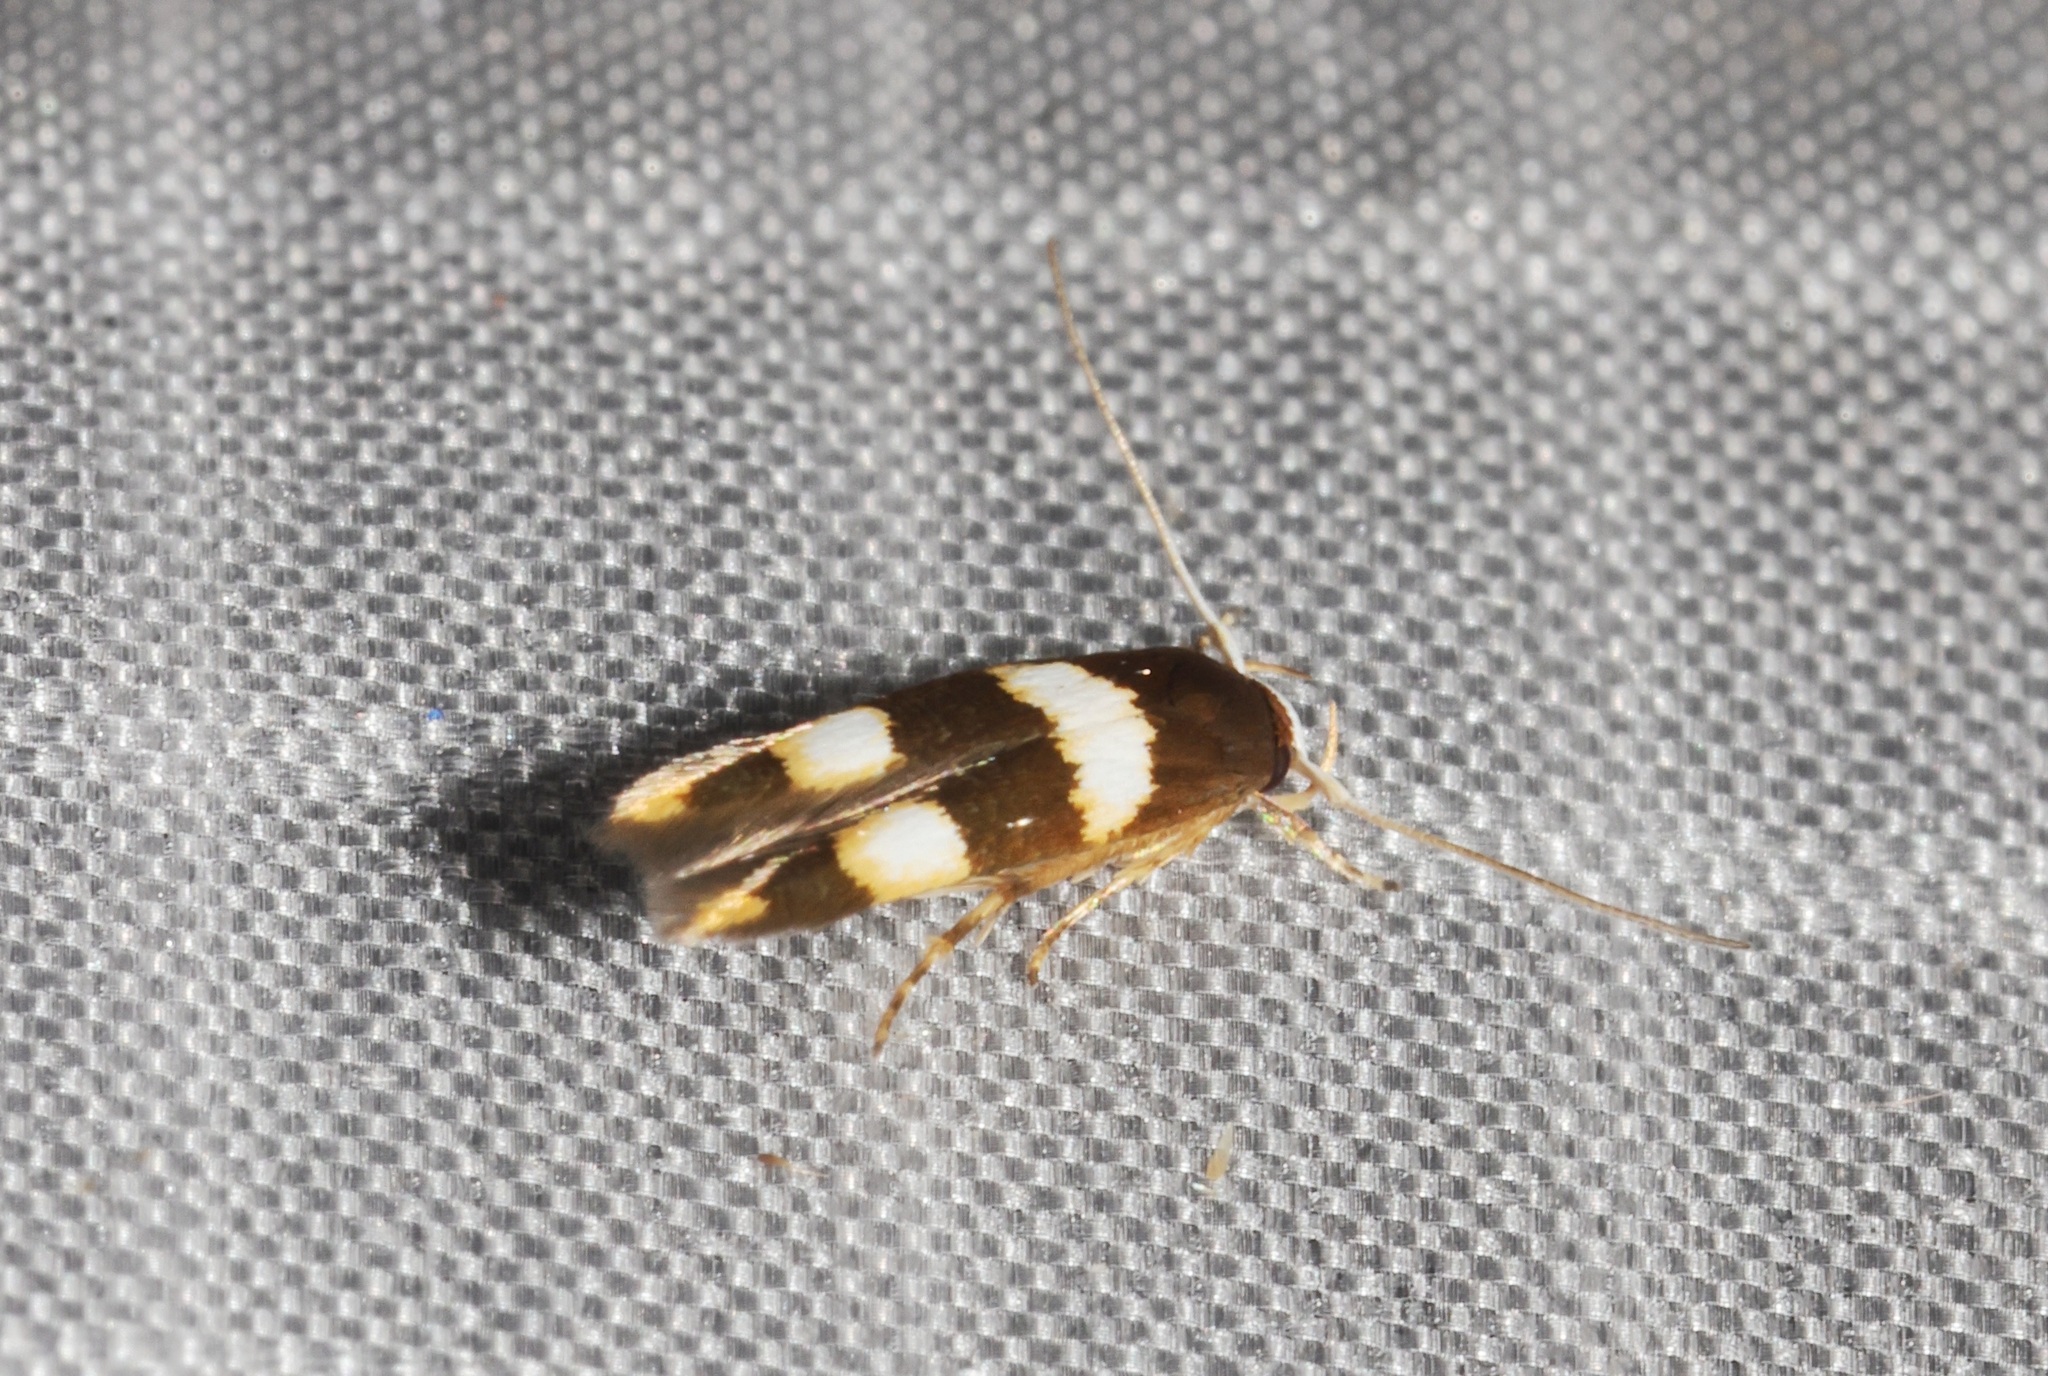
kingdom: Animalia
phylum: Arthropoda
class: Insecta
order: Lepidoptera
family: Stathmopodidae
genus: Stathmopoda
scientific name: Stathmopoda
